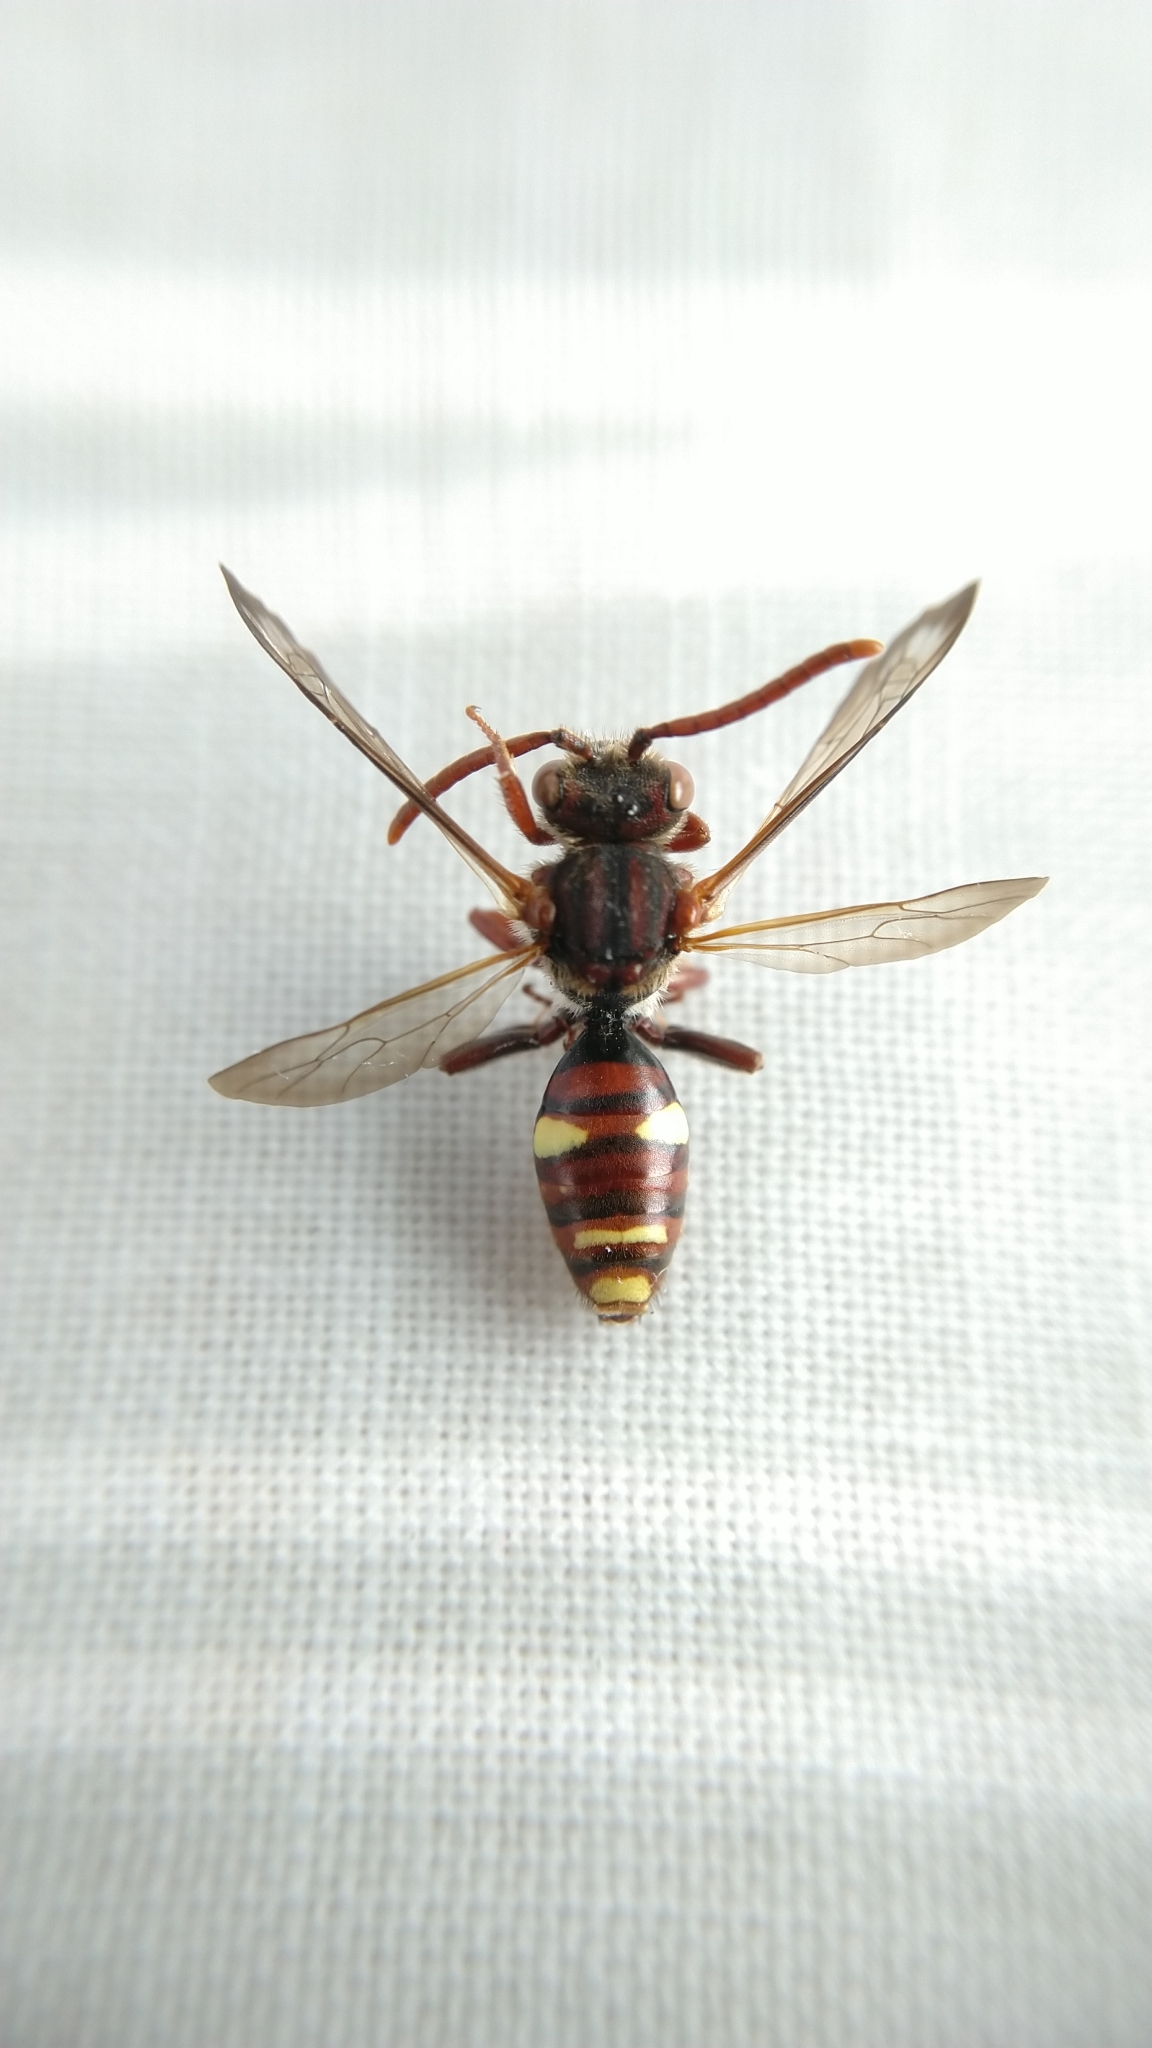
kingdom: Animalia
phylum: Arthropoda
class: Insecta
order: Hymenoptera
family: Apidae
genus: Nomada
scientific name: Nomada ruficornis
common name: Fork-jawed nomad bee
